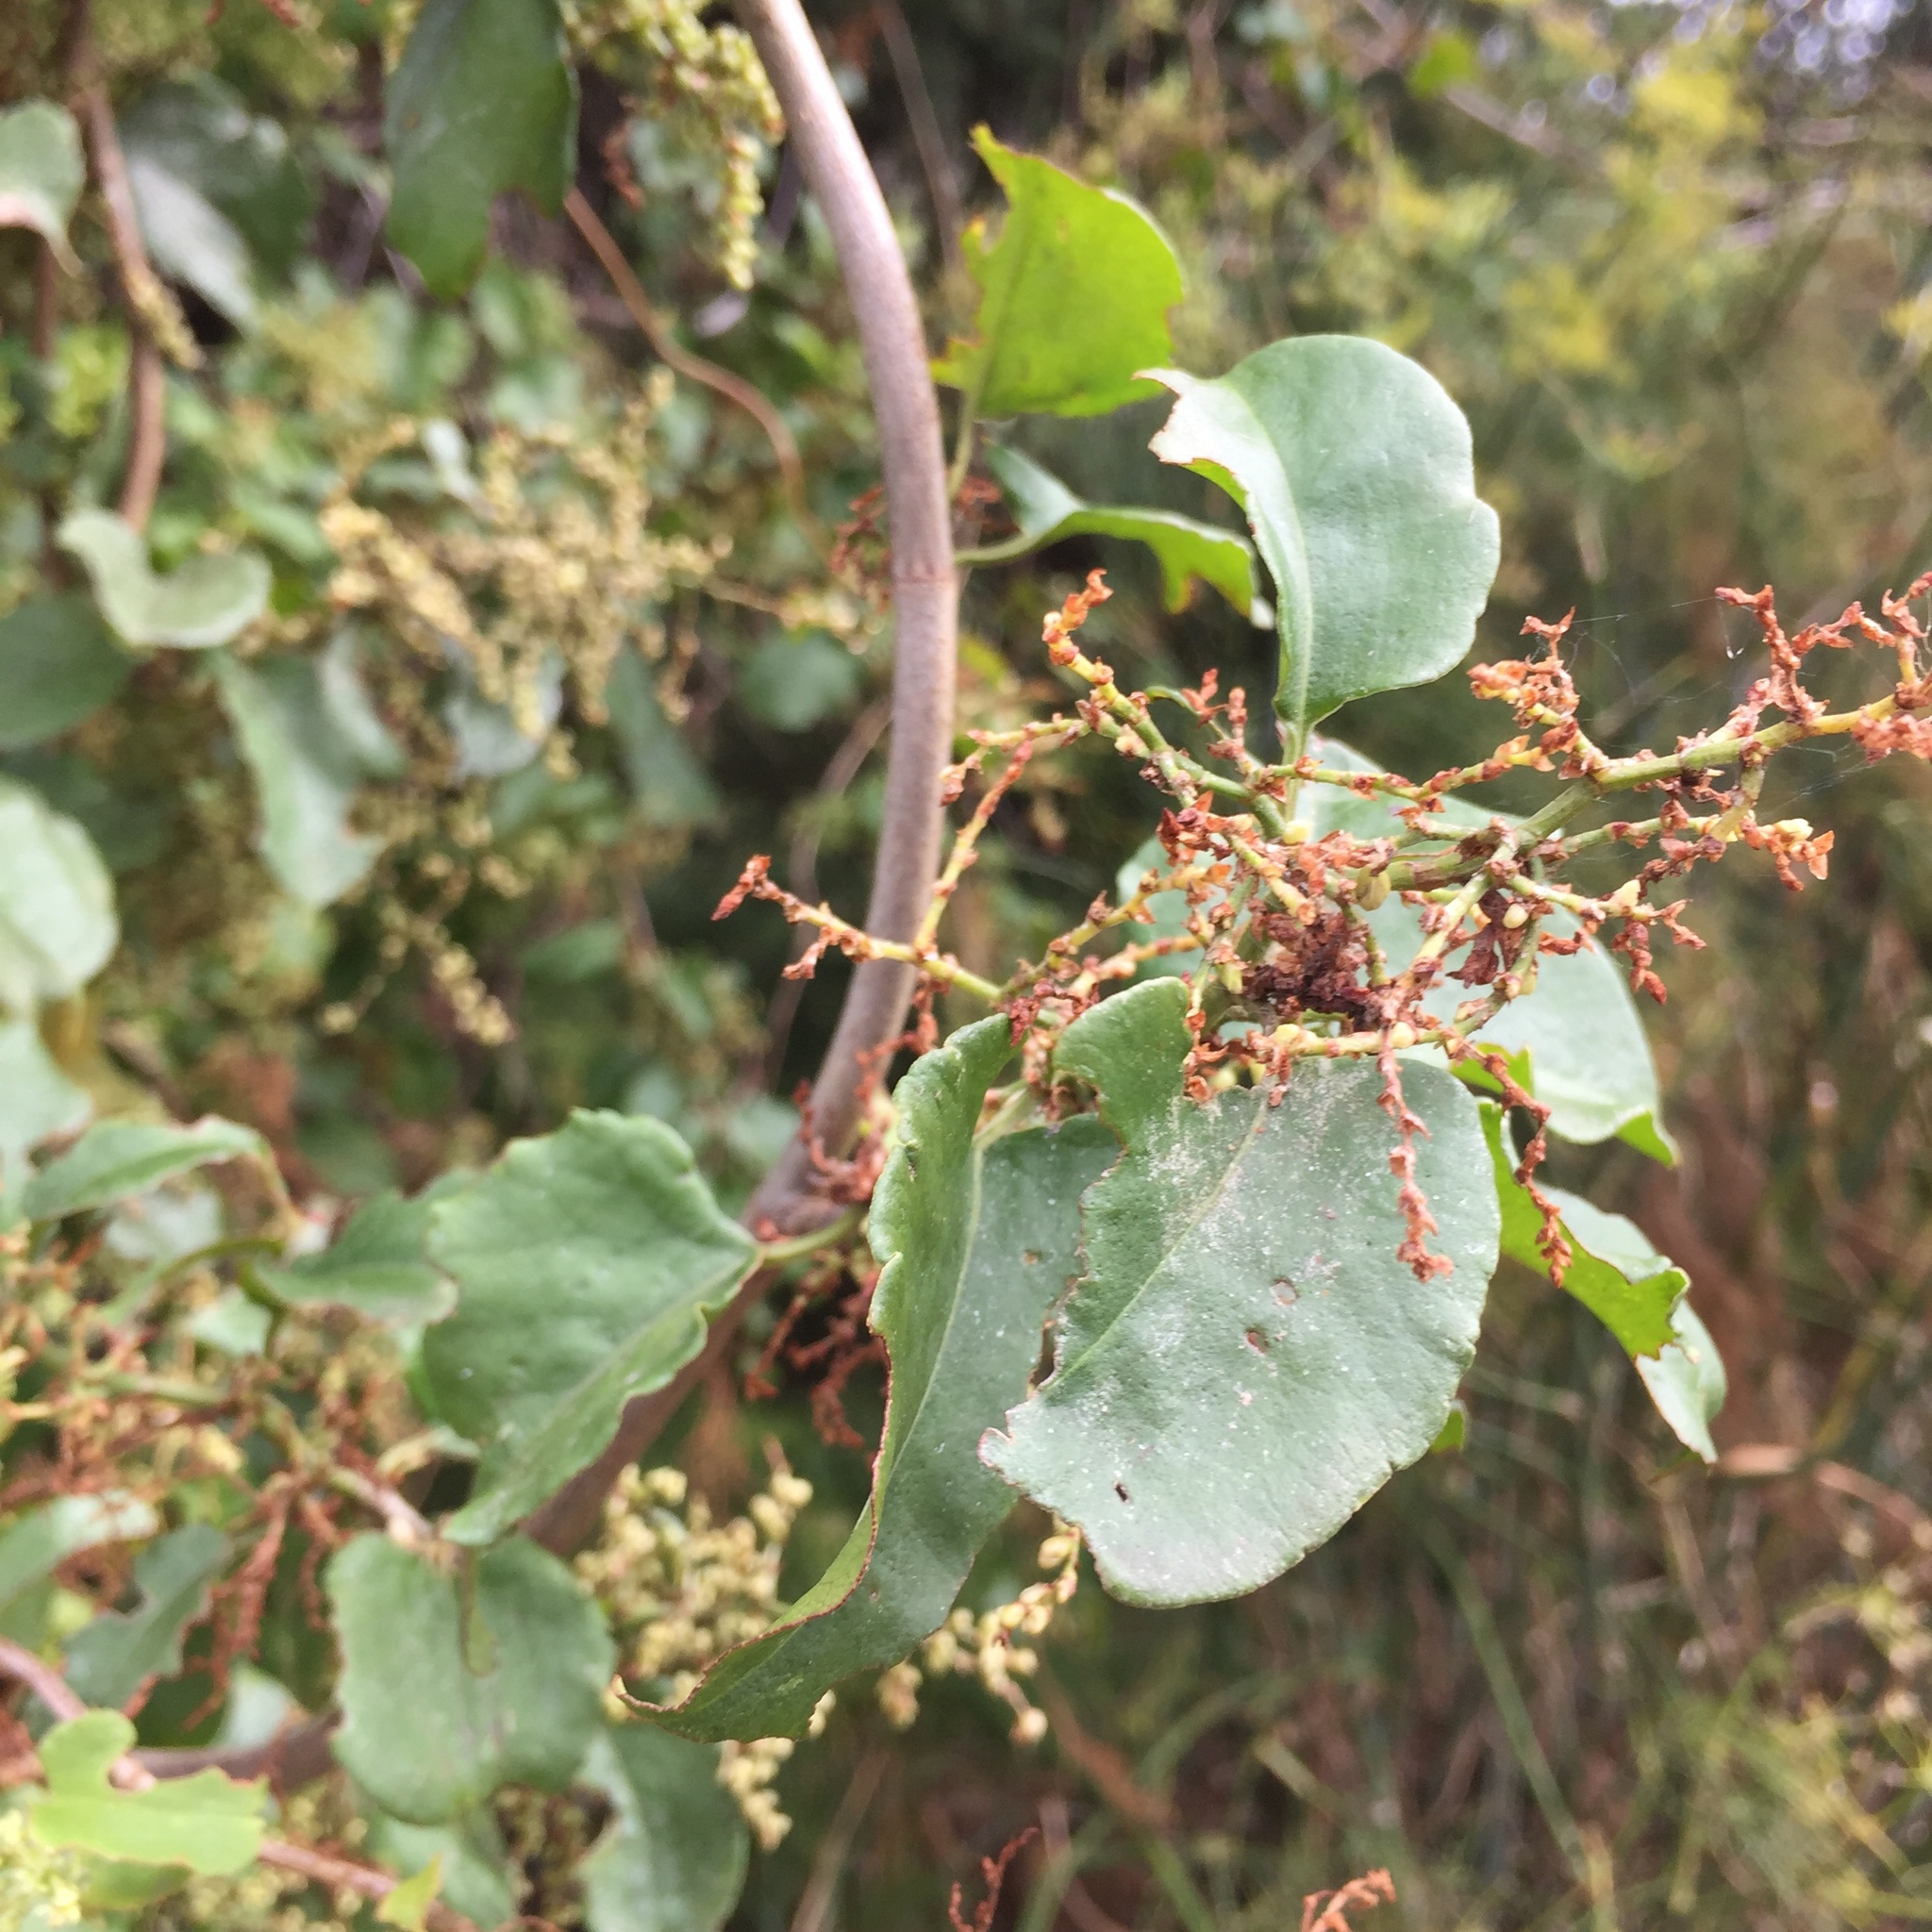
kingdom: Plantae
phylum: Tracheophyta
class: Magnoliopsida
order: Caryophyllales
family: Polygonaceae
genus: Muehlenbeckia
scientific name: Muehlenbeckia australis
